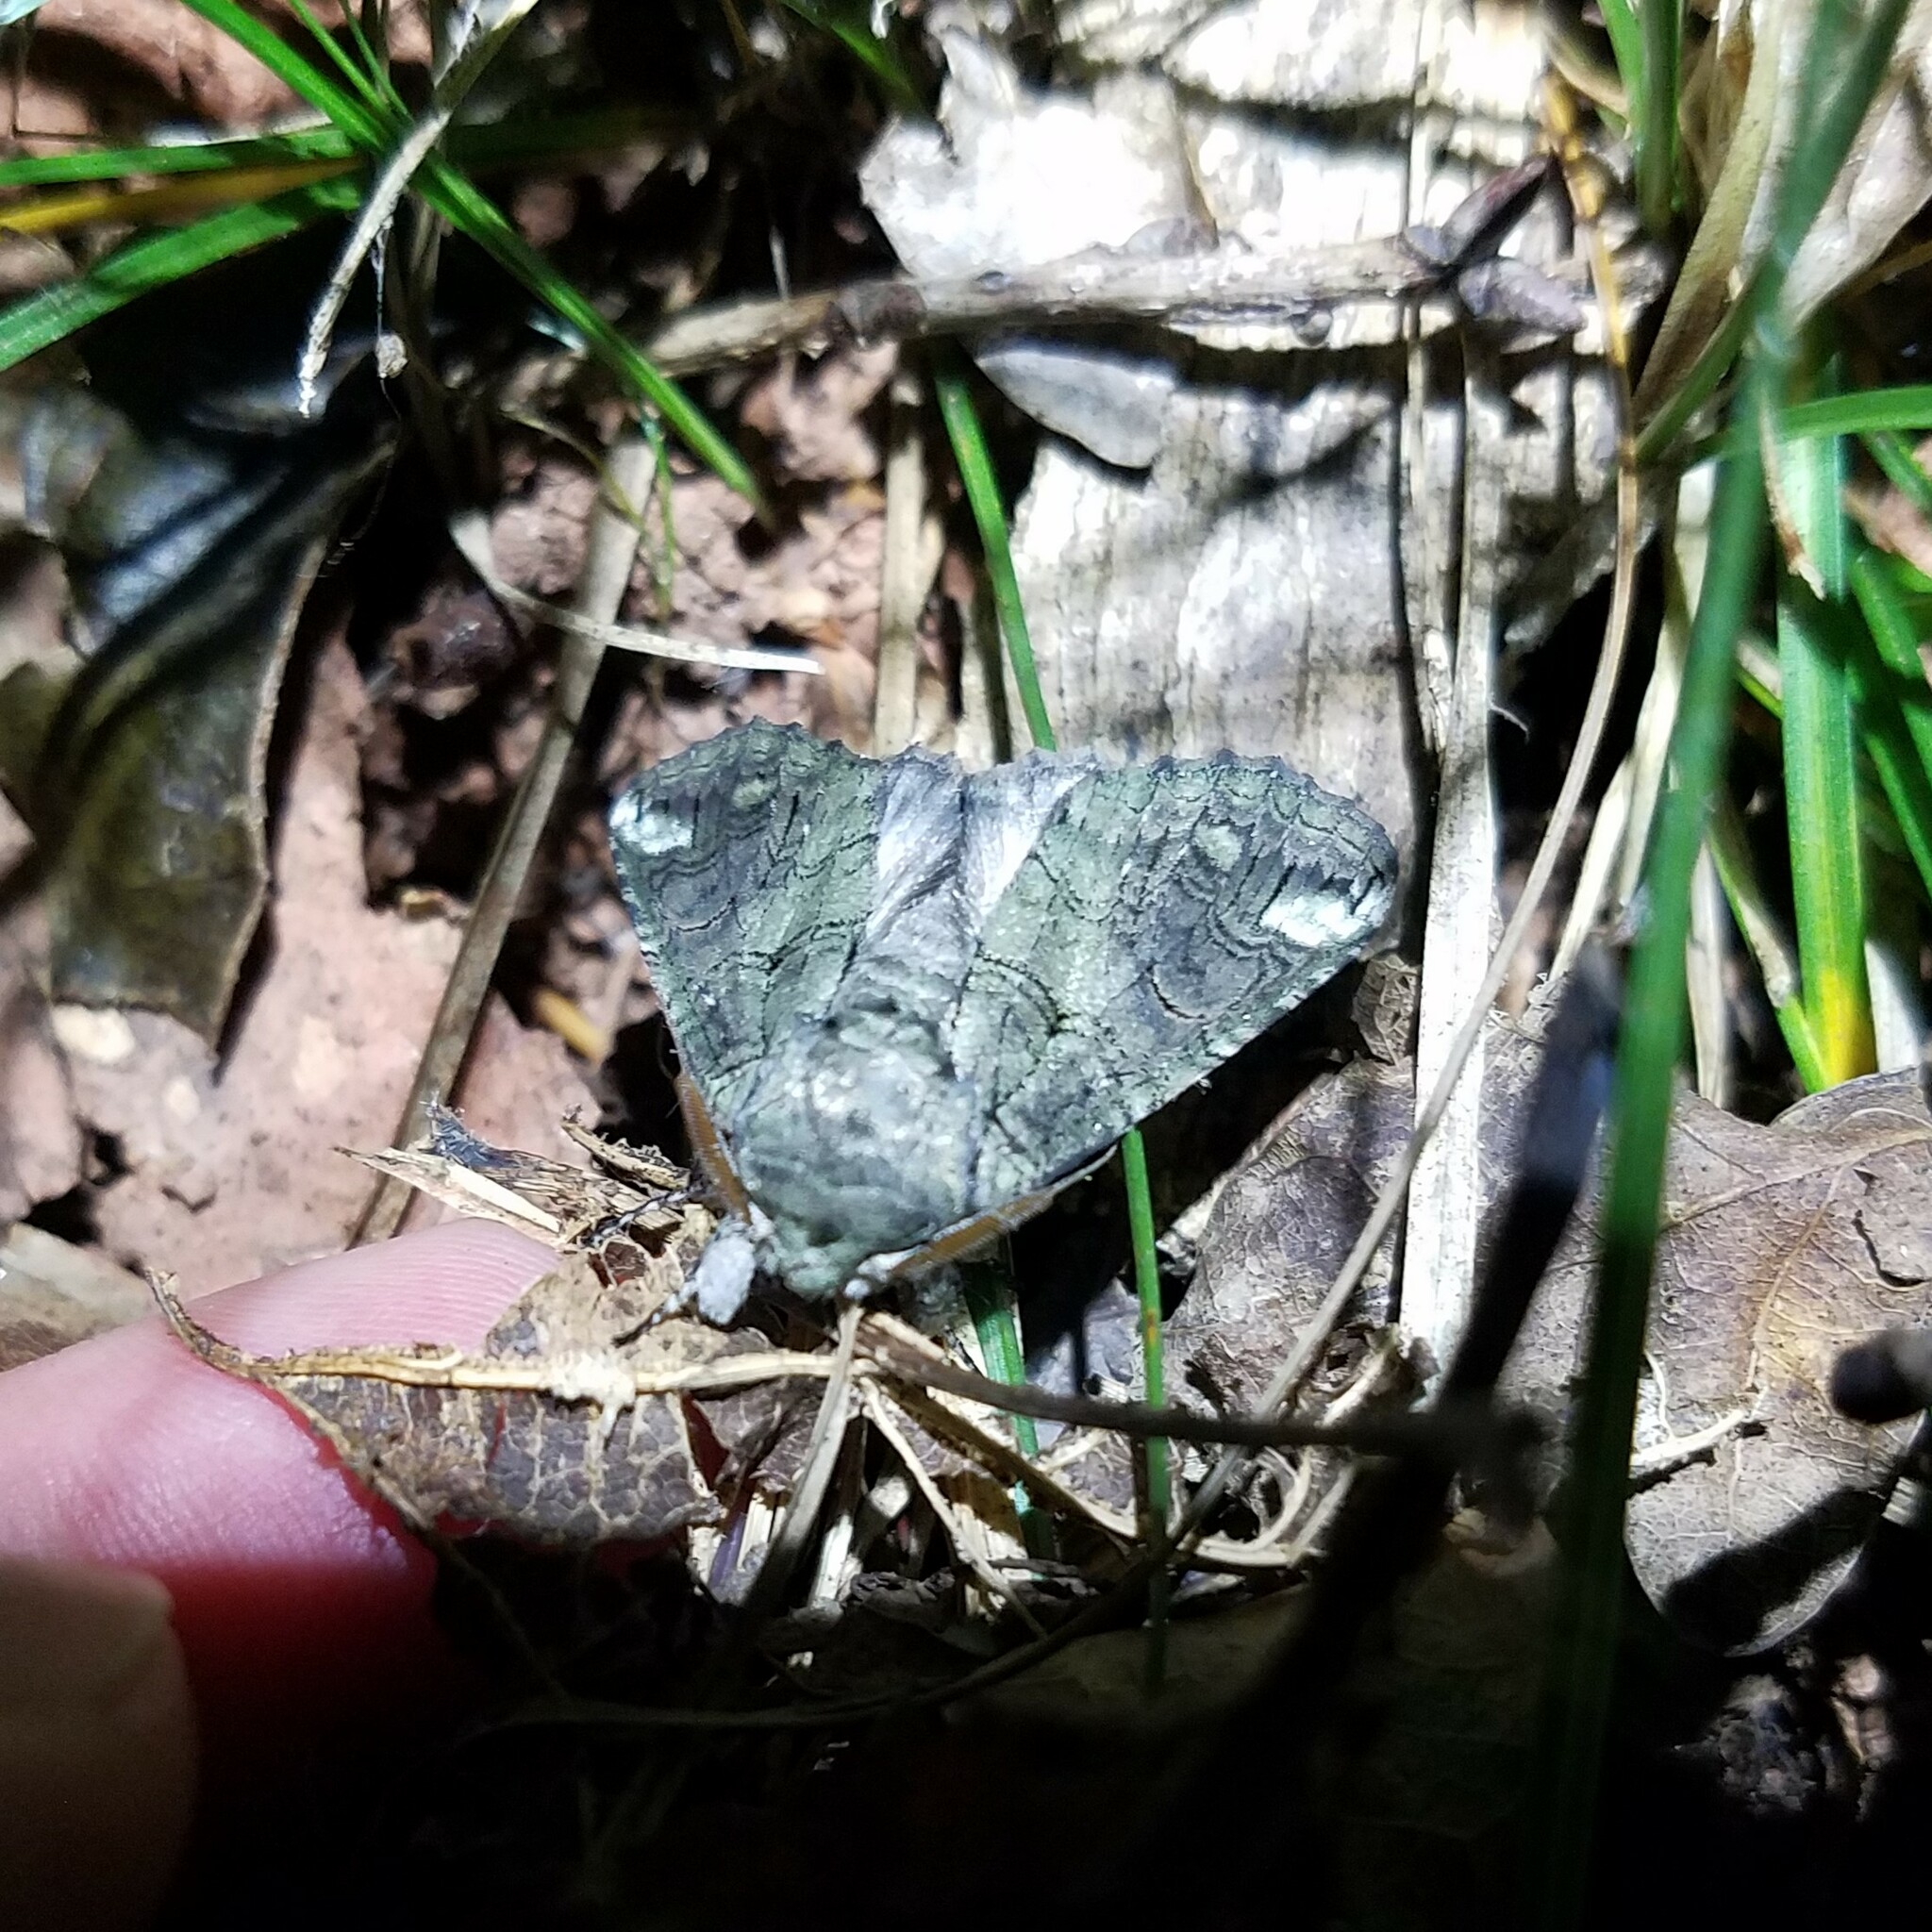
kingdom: Animalia
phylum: Arthropoda
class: Insecta
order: Lepidoptera
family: Notodontidae
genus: Heterocampa
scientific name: Heterocampa obliqua
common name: Oblique heterocampa
